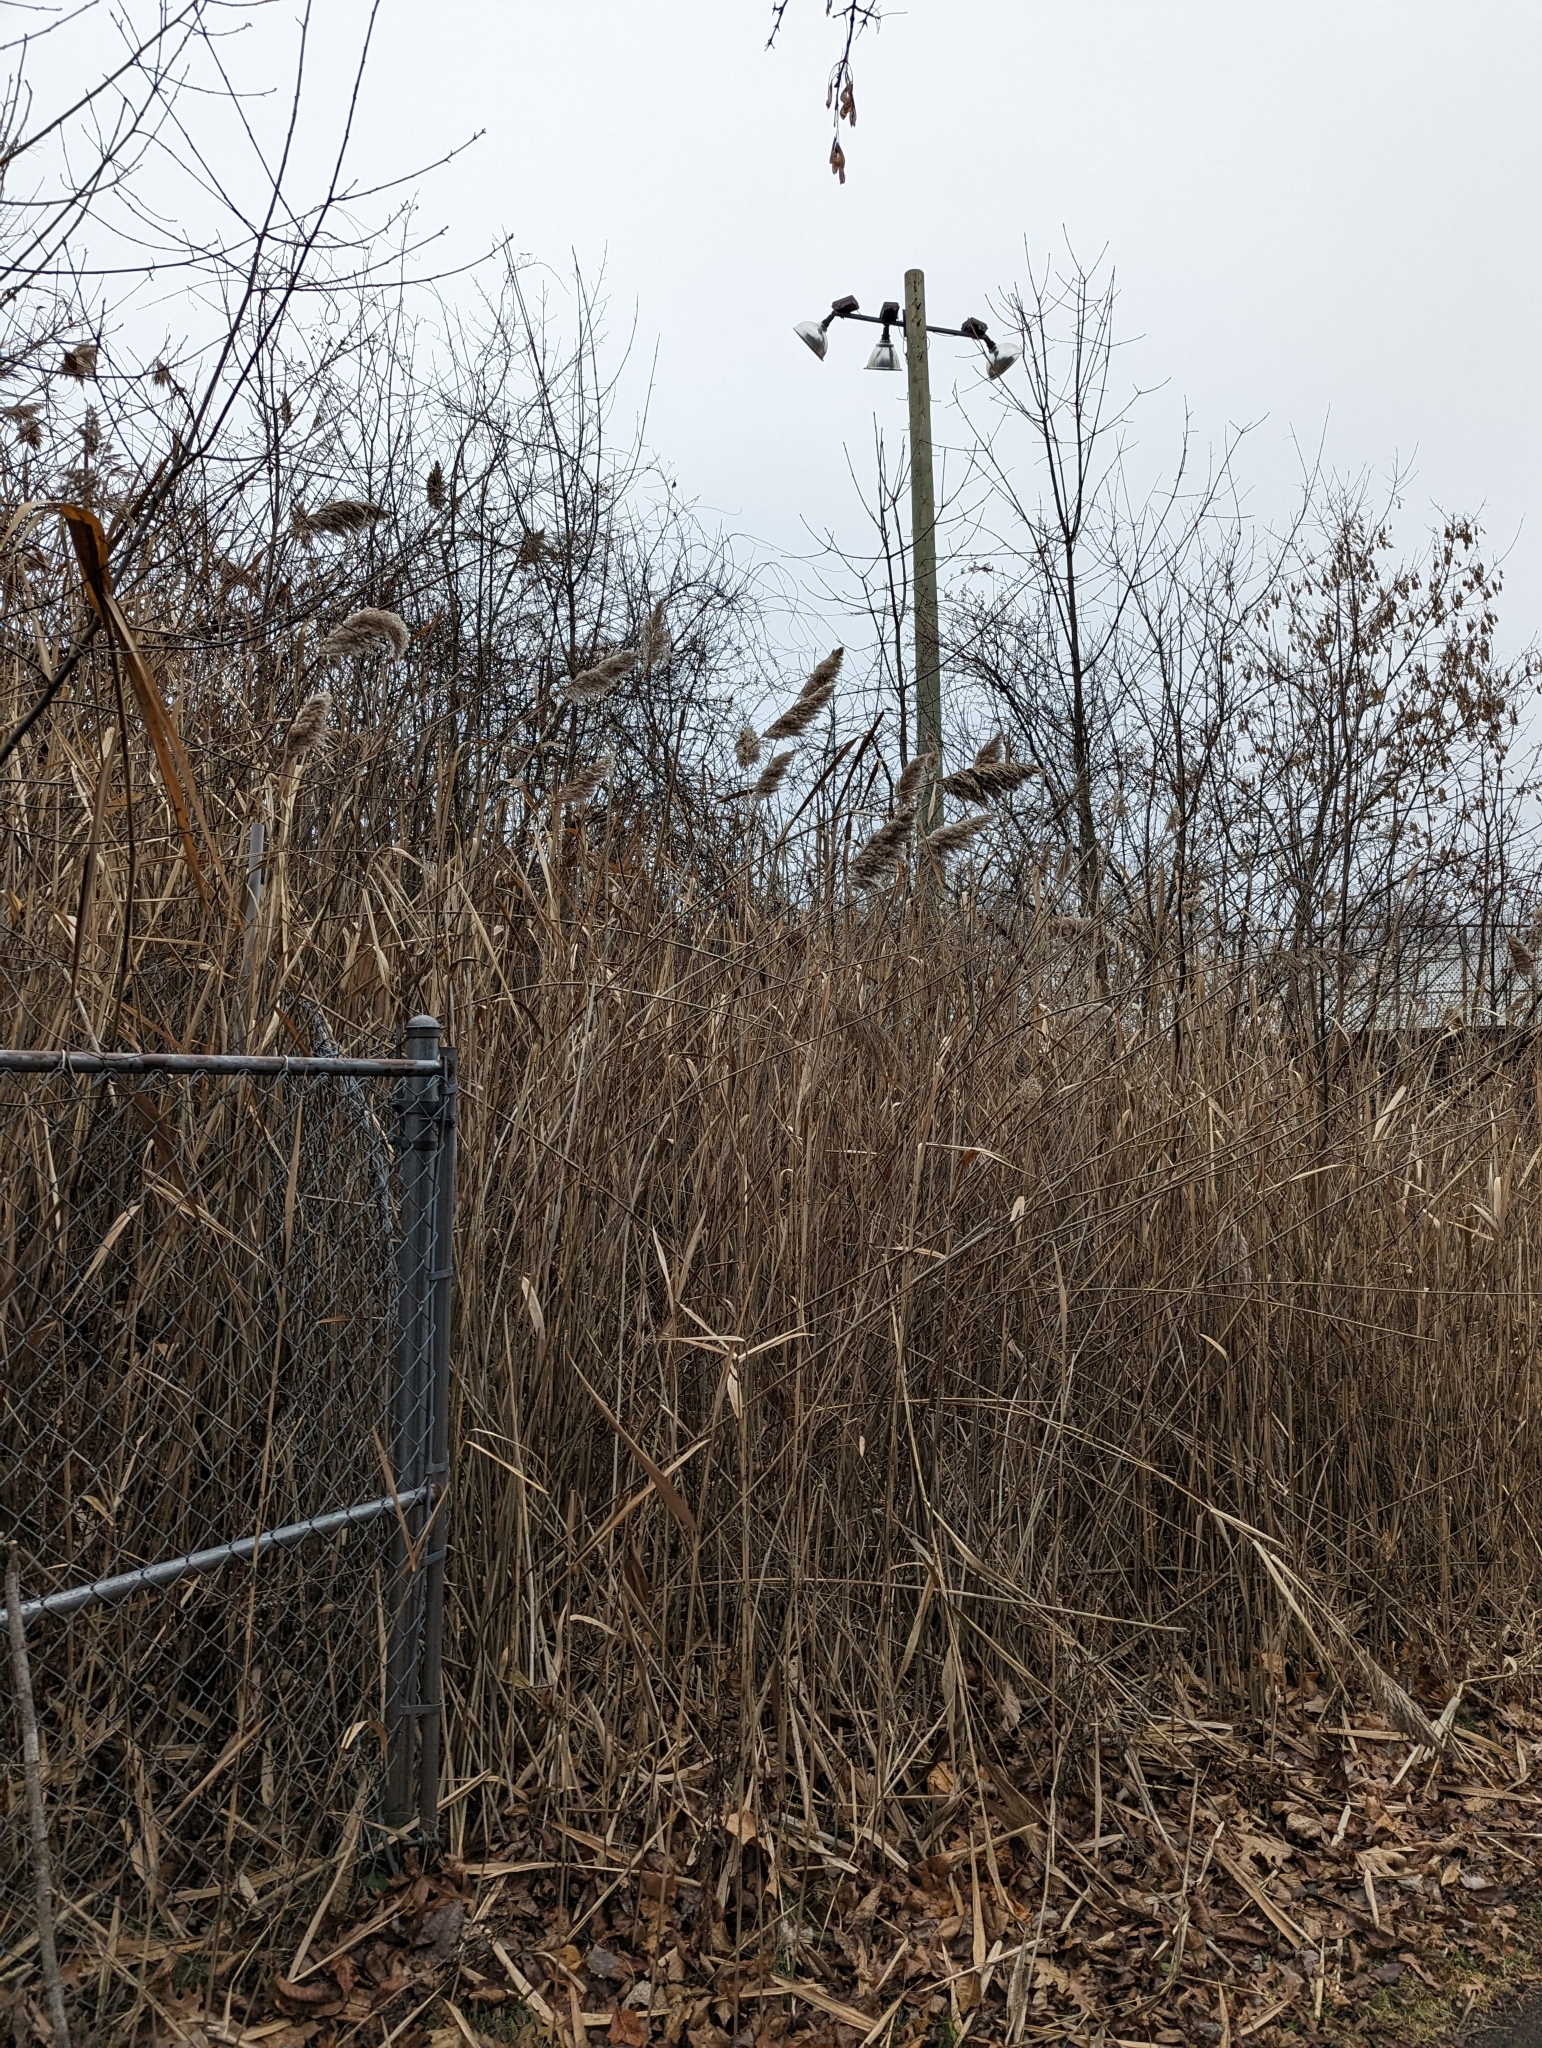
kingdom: Plantae
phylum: Tracheophyta
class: Liliopsida
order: Poales
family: Poaceae
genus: Phragmites
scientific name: Phragmites australis
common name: Common reed
